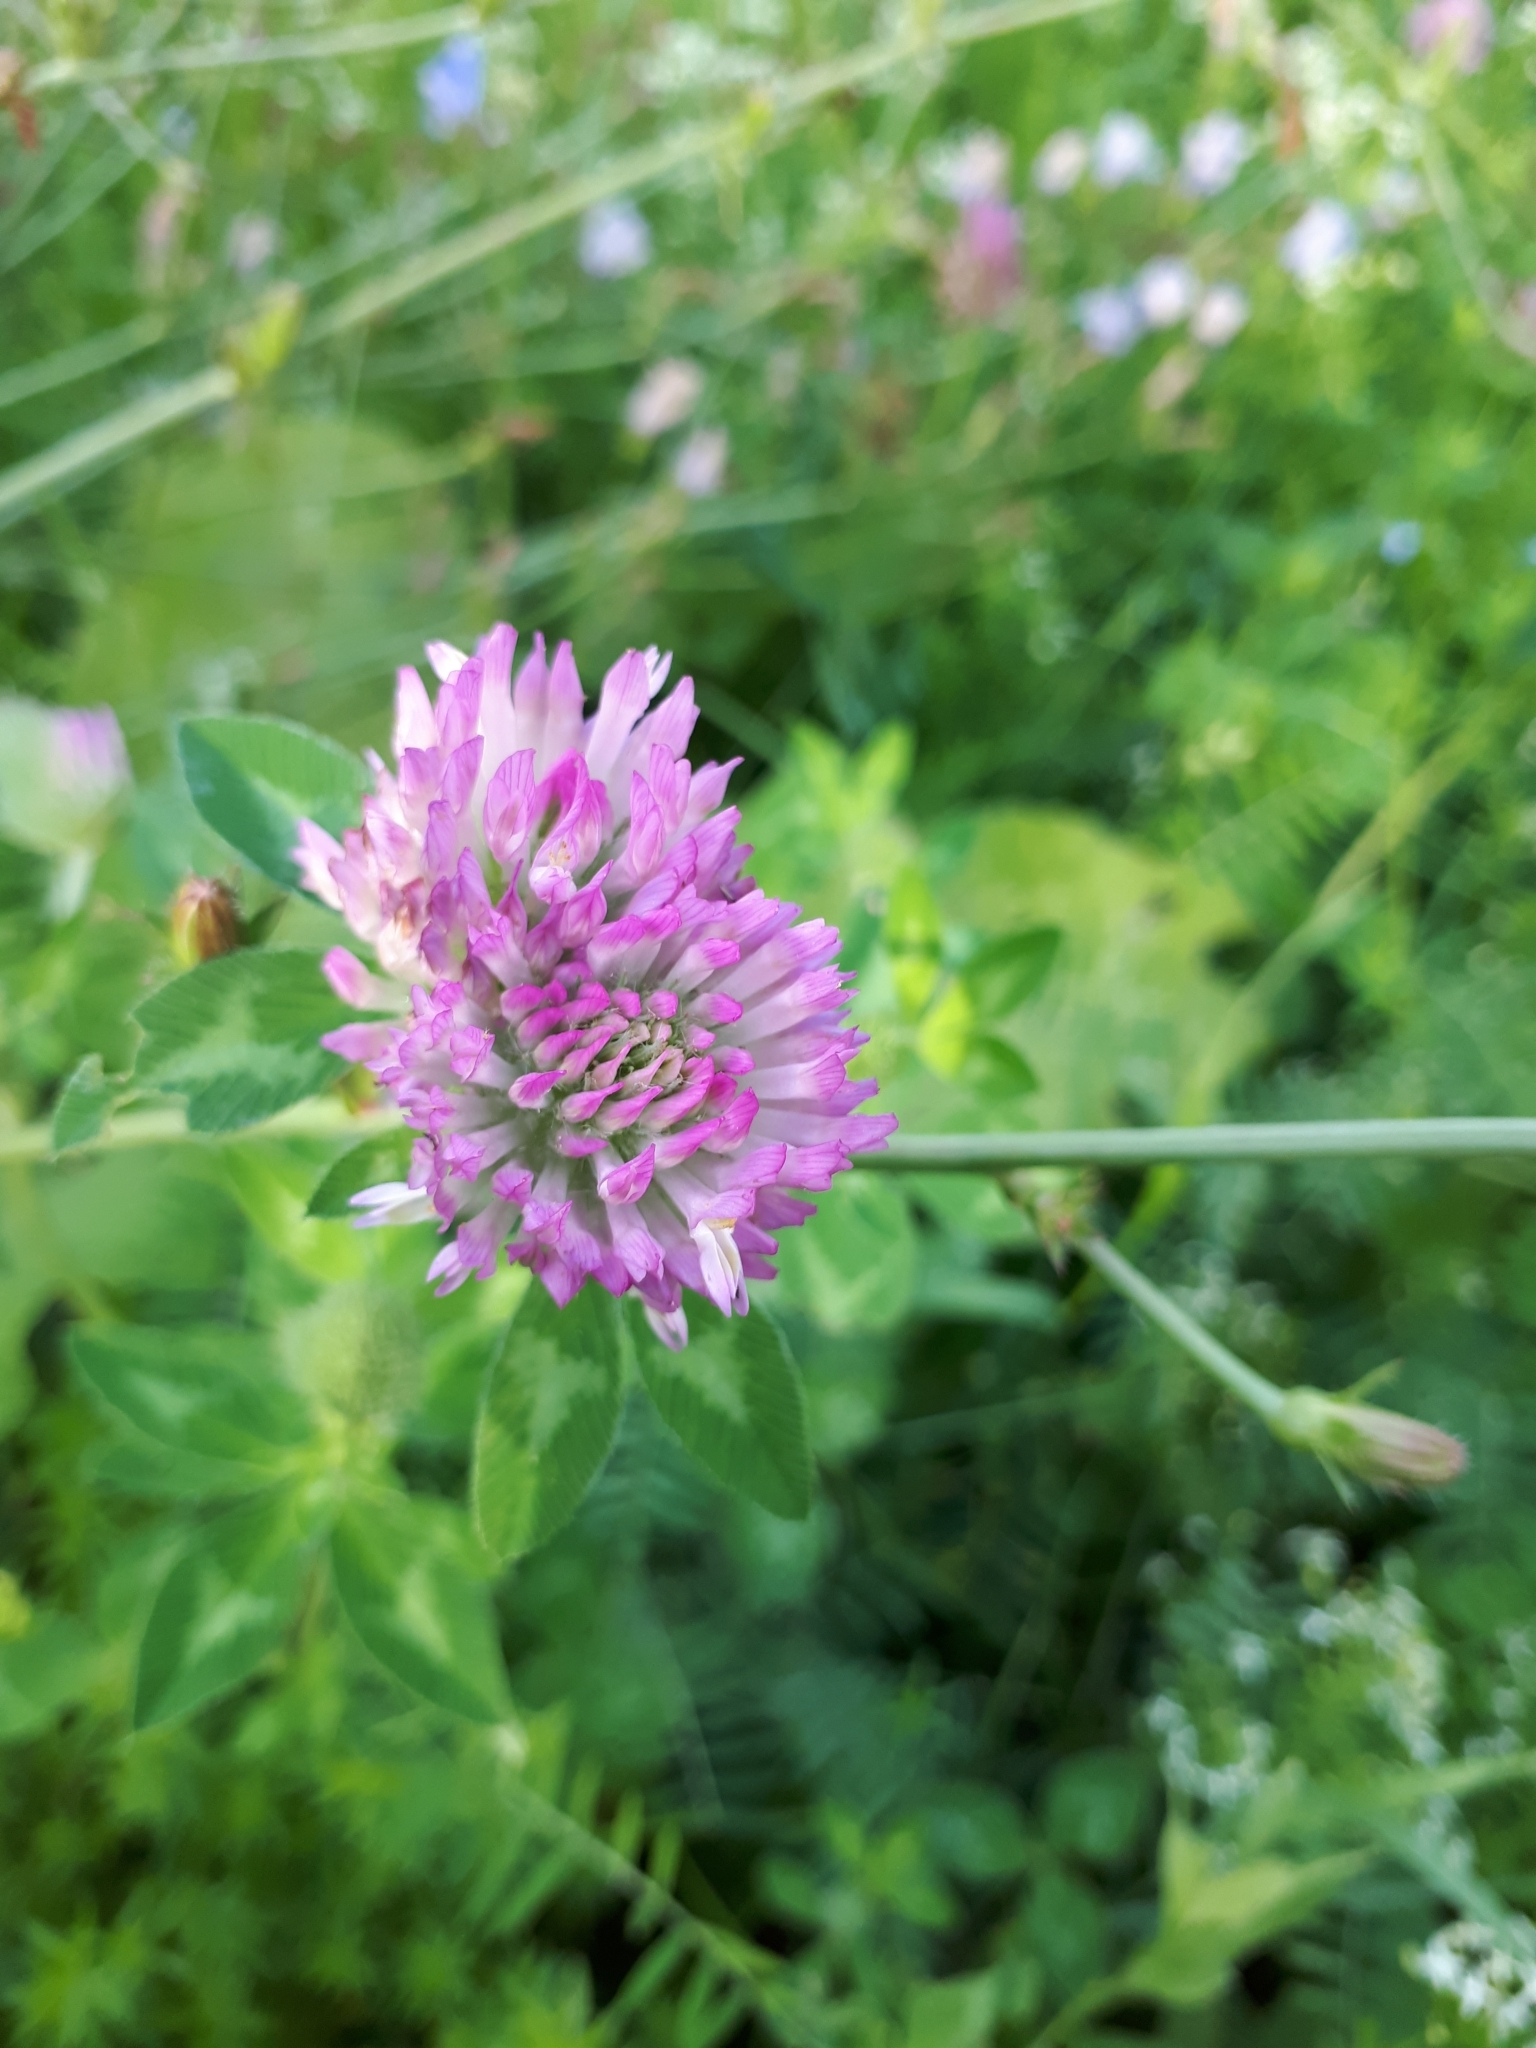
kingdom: Plantae
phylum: Tracheophyta
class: Magnoliopsida
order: Fabales
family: Fabaceae
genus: Trifolium
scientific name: Trifolium pratense
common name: Red clover
